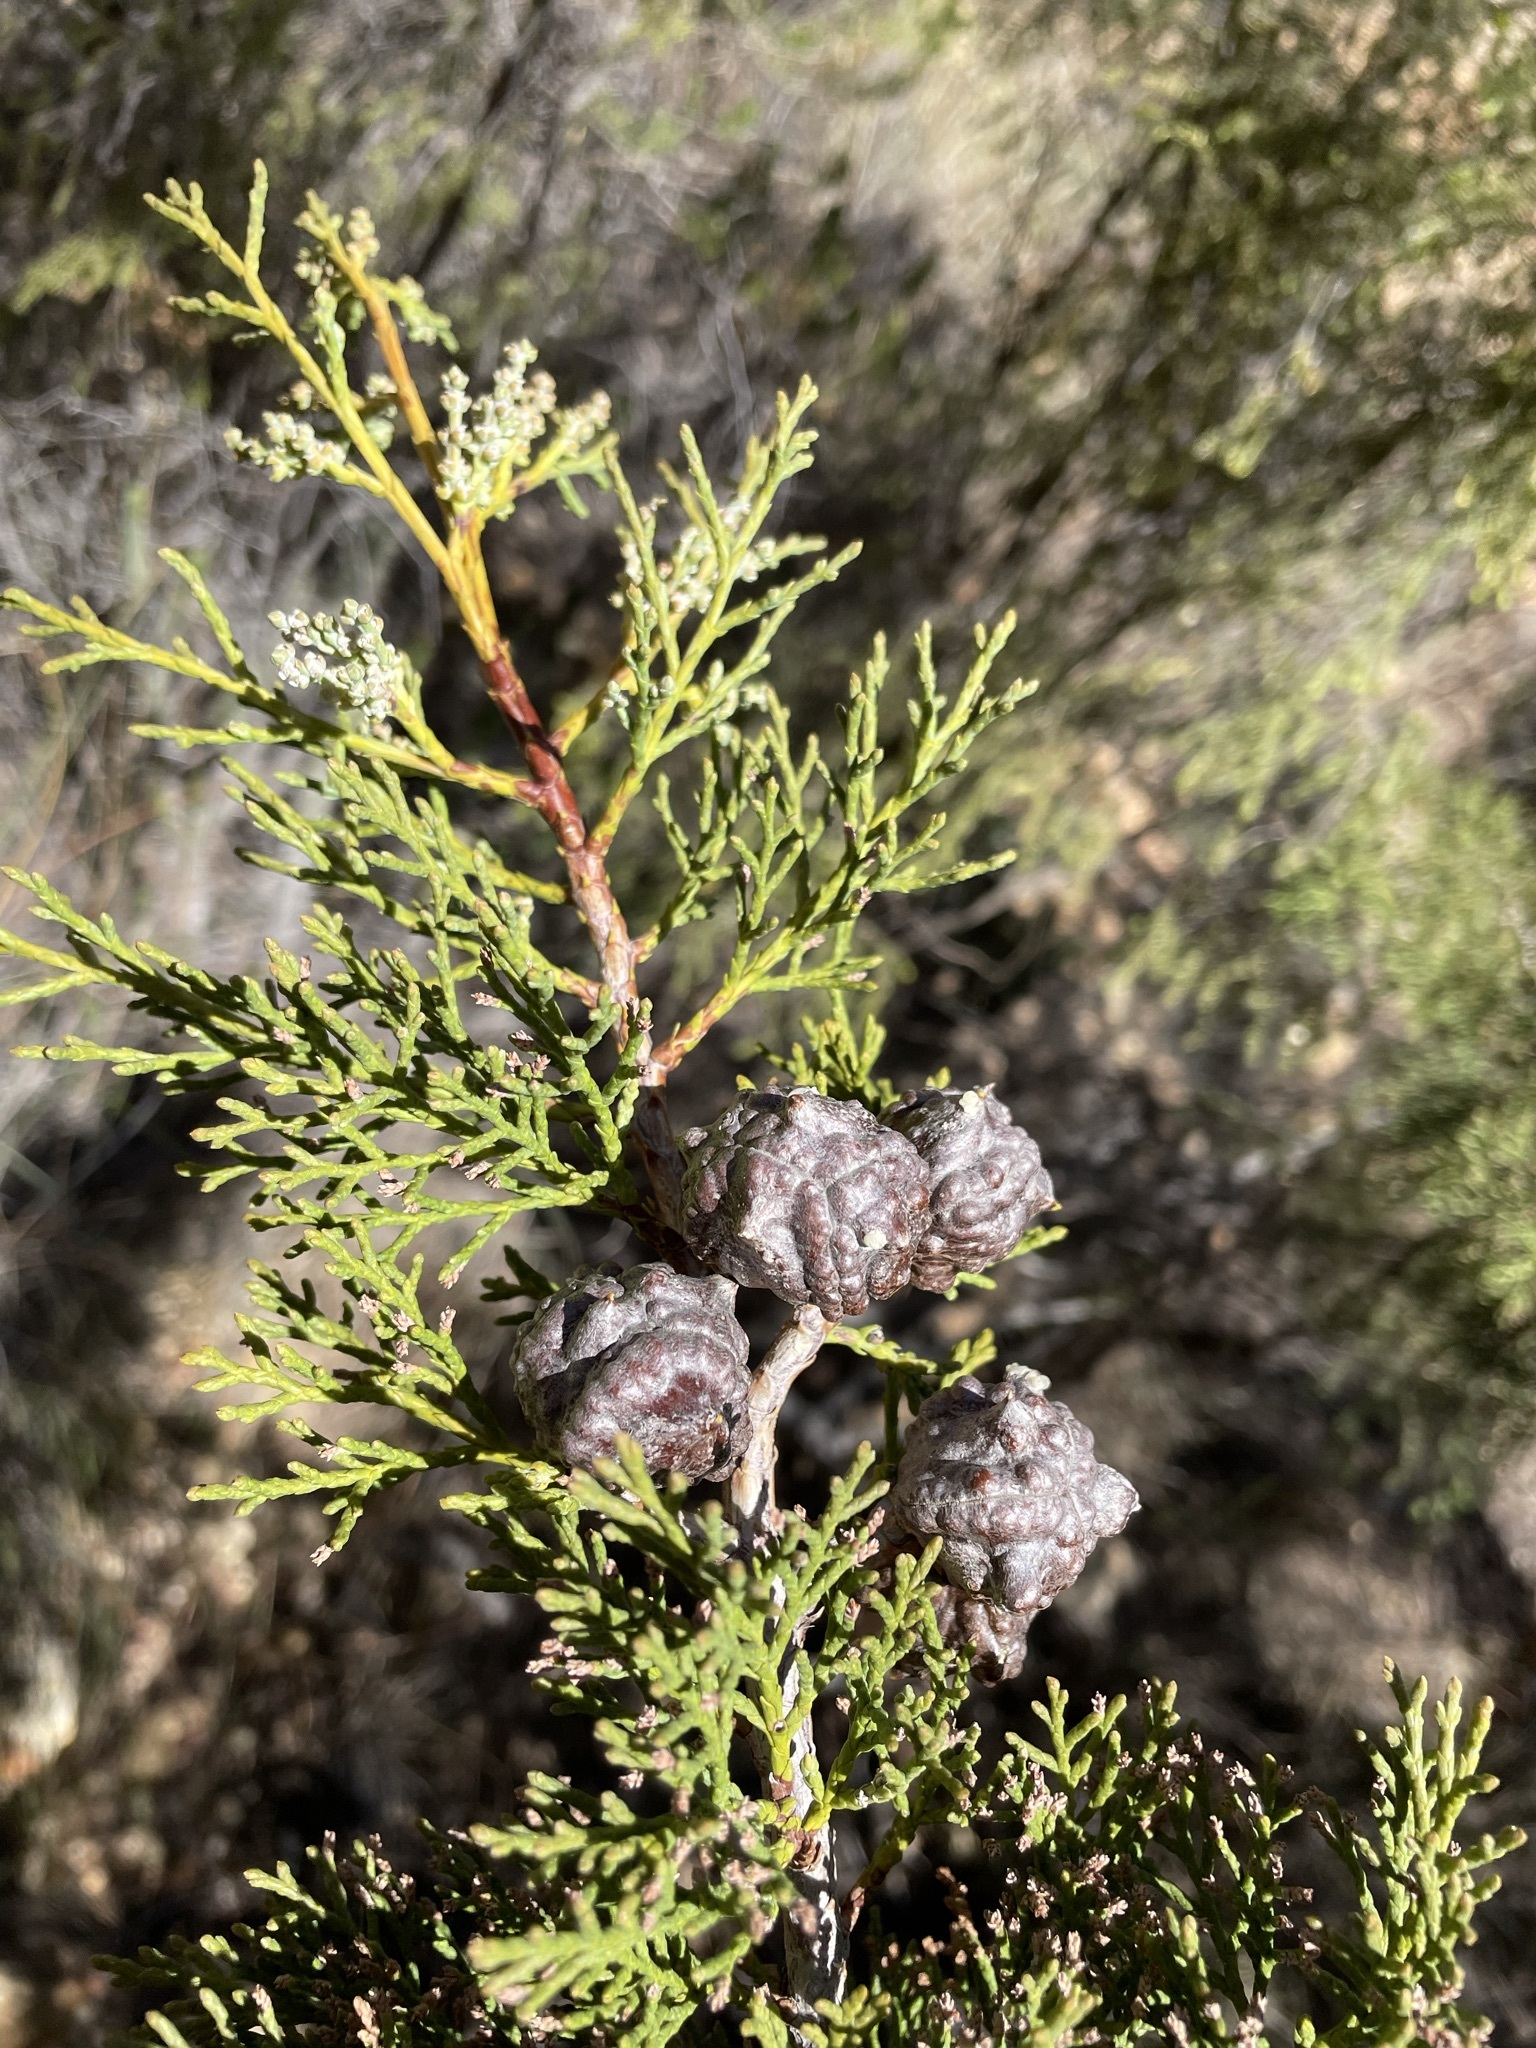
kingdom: Plantae
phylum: Tracheophyta
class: Pinopsida
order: Pinales
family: Cupressaceae
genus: Widdringtonia
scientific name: Widdringtonia schwarzii
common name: Baviaans cedar
